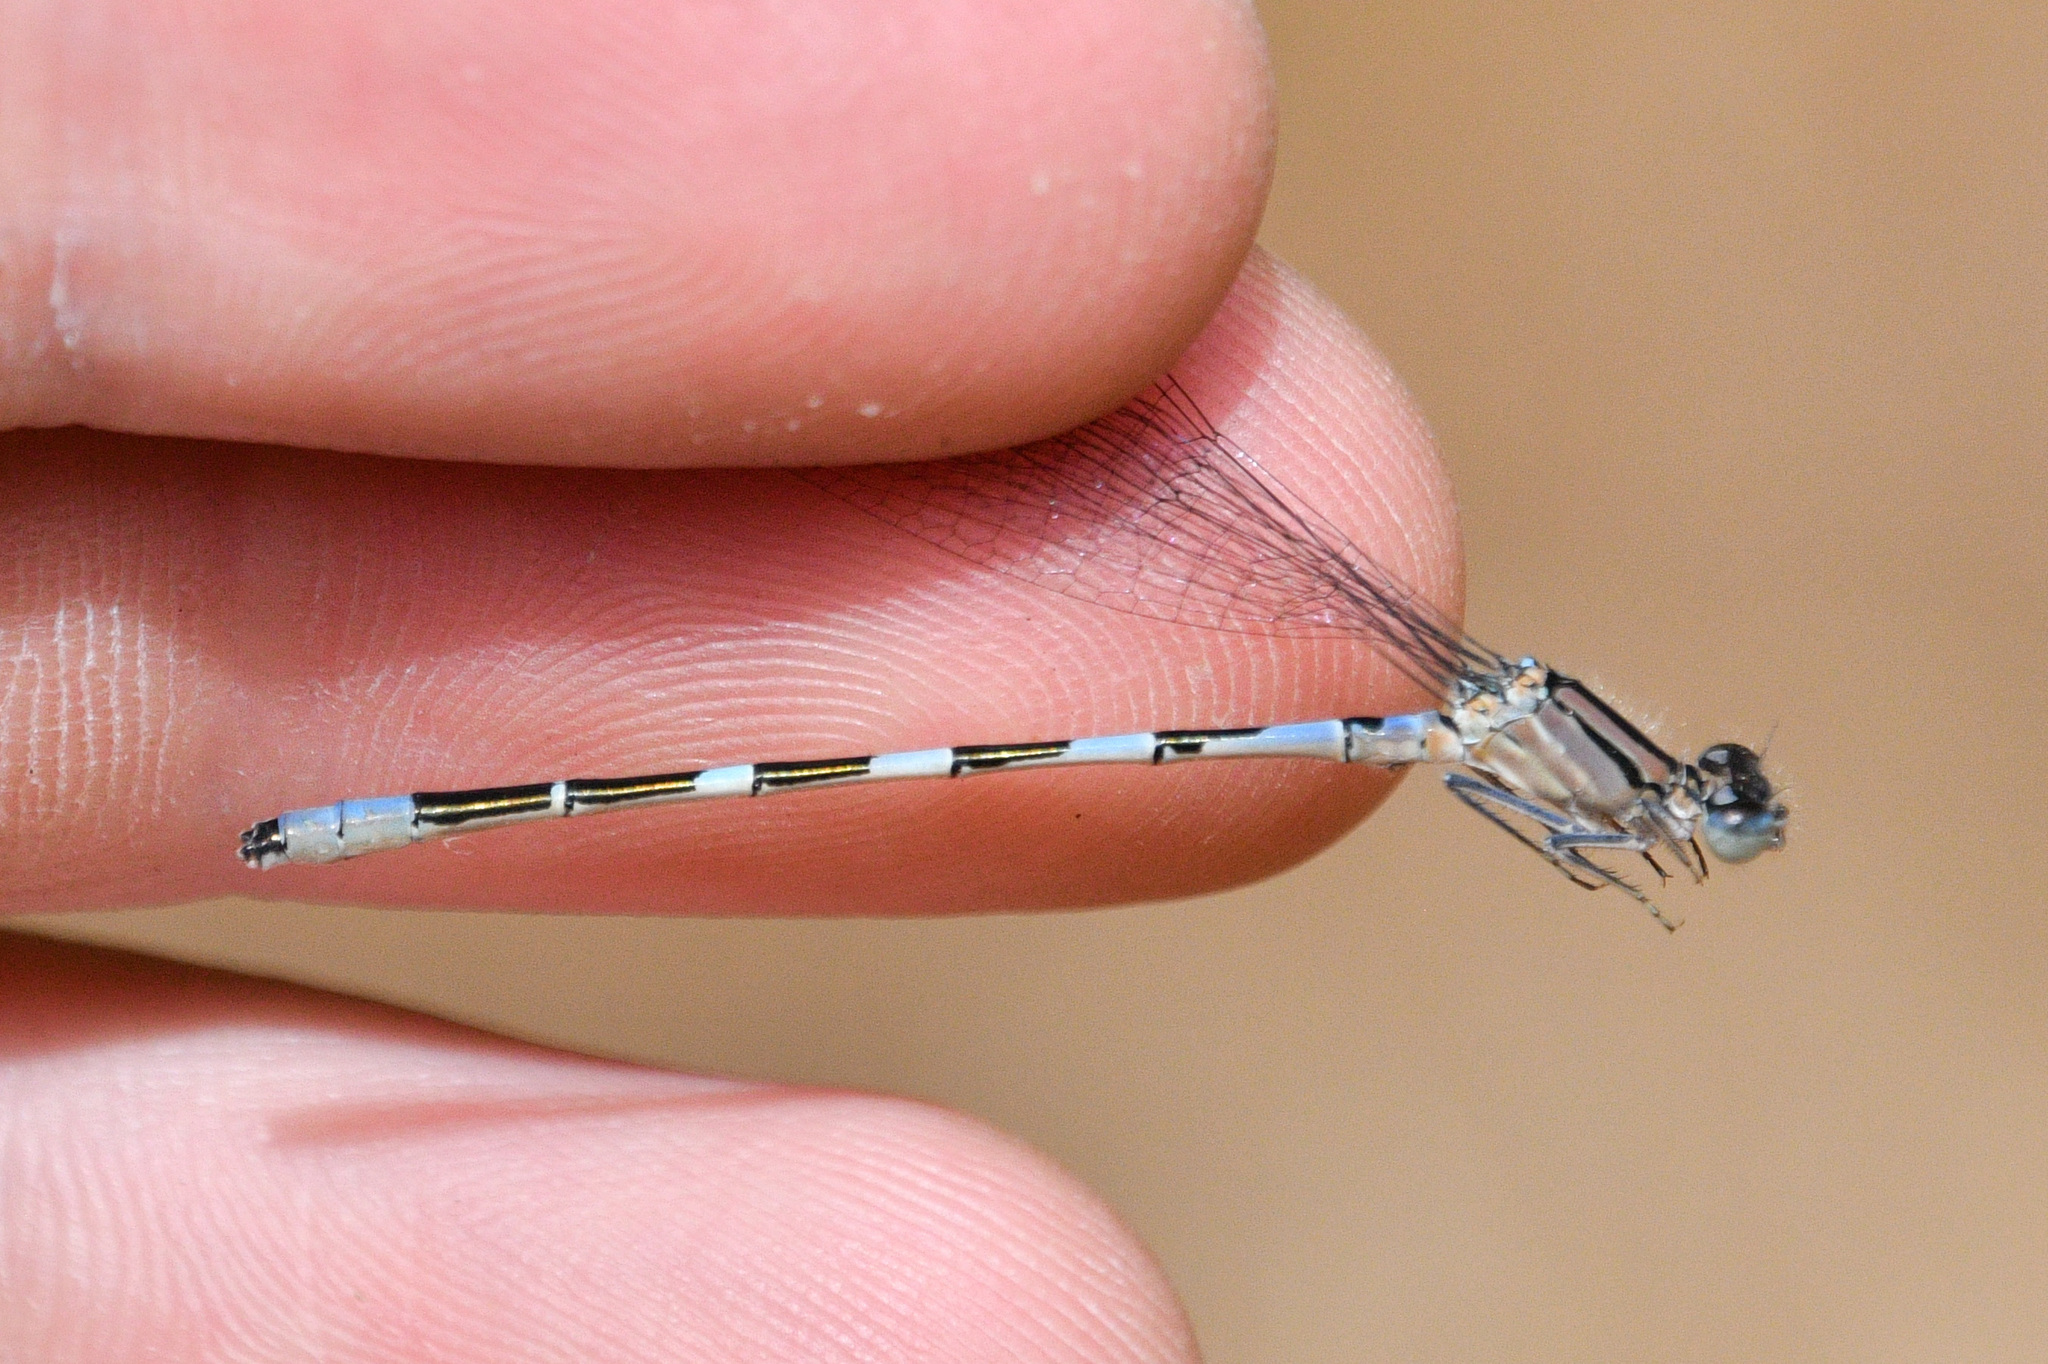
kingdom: Animalia
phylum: Arthropoda
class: Insecta
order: Odonata
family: Coenagrionidae
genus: Enallagma
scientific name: Enallagma carunculatum
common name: Tule bluet
